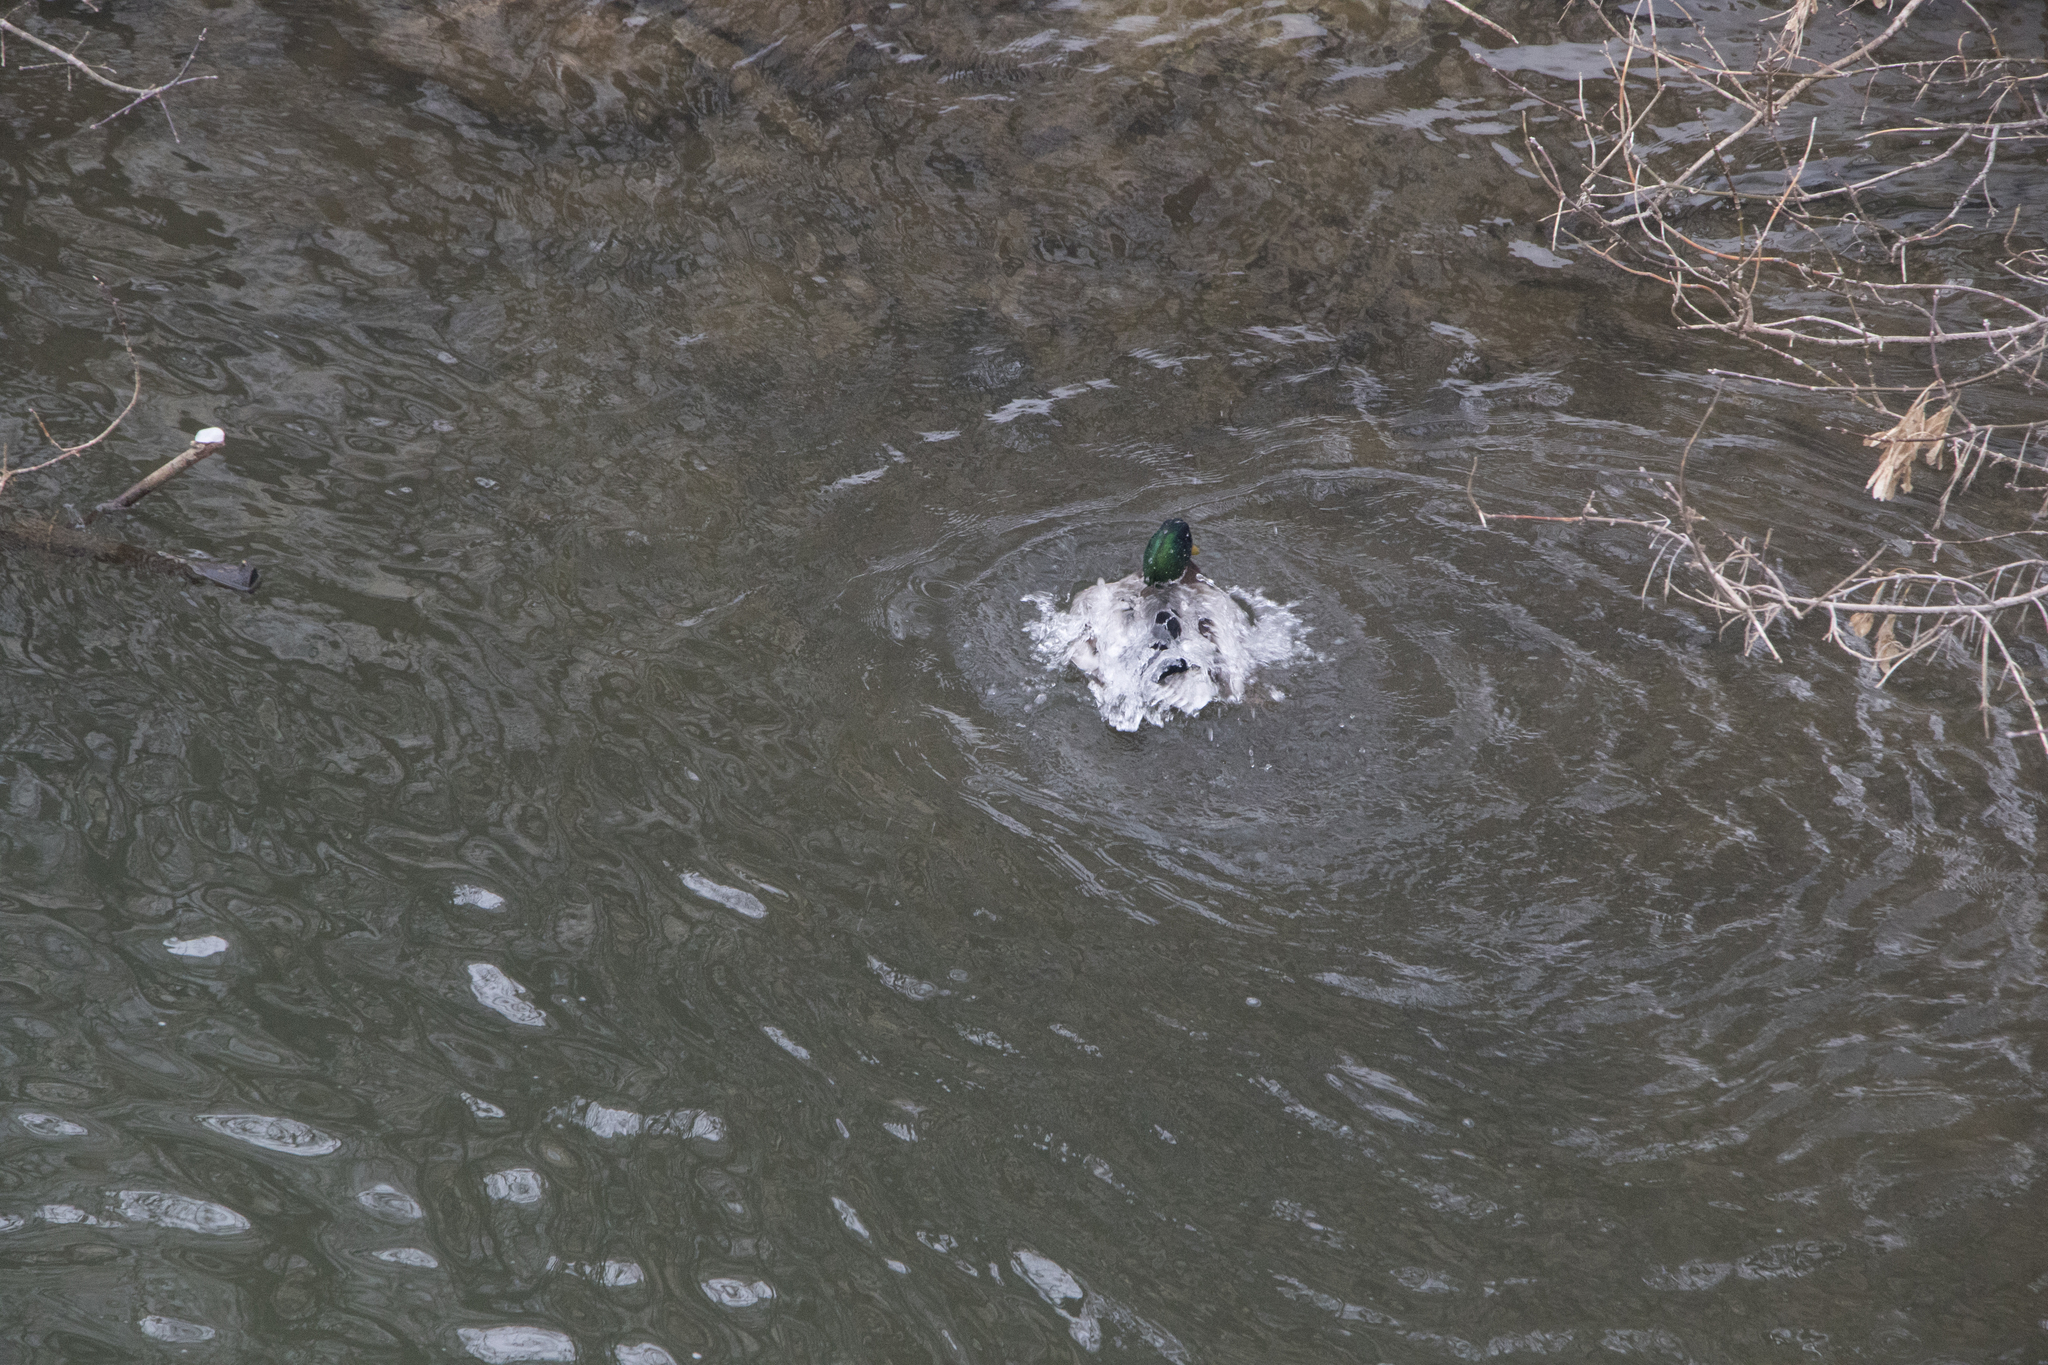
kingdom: Animalia
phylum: Chordata
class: Aves
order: Anseriformes
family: Anatidae
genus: Anas
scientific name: Anas platyrhynchos
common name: Mallard
